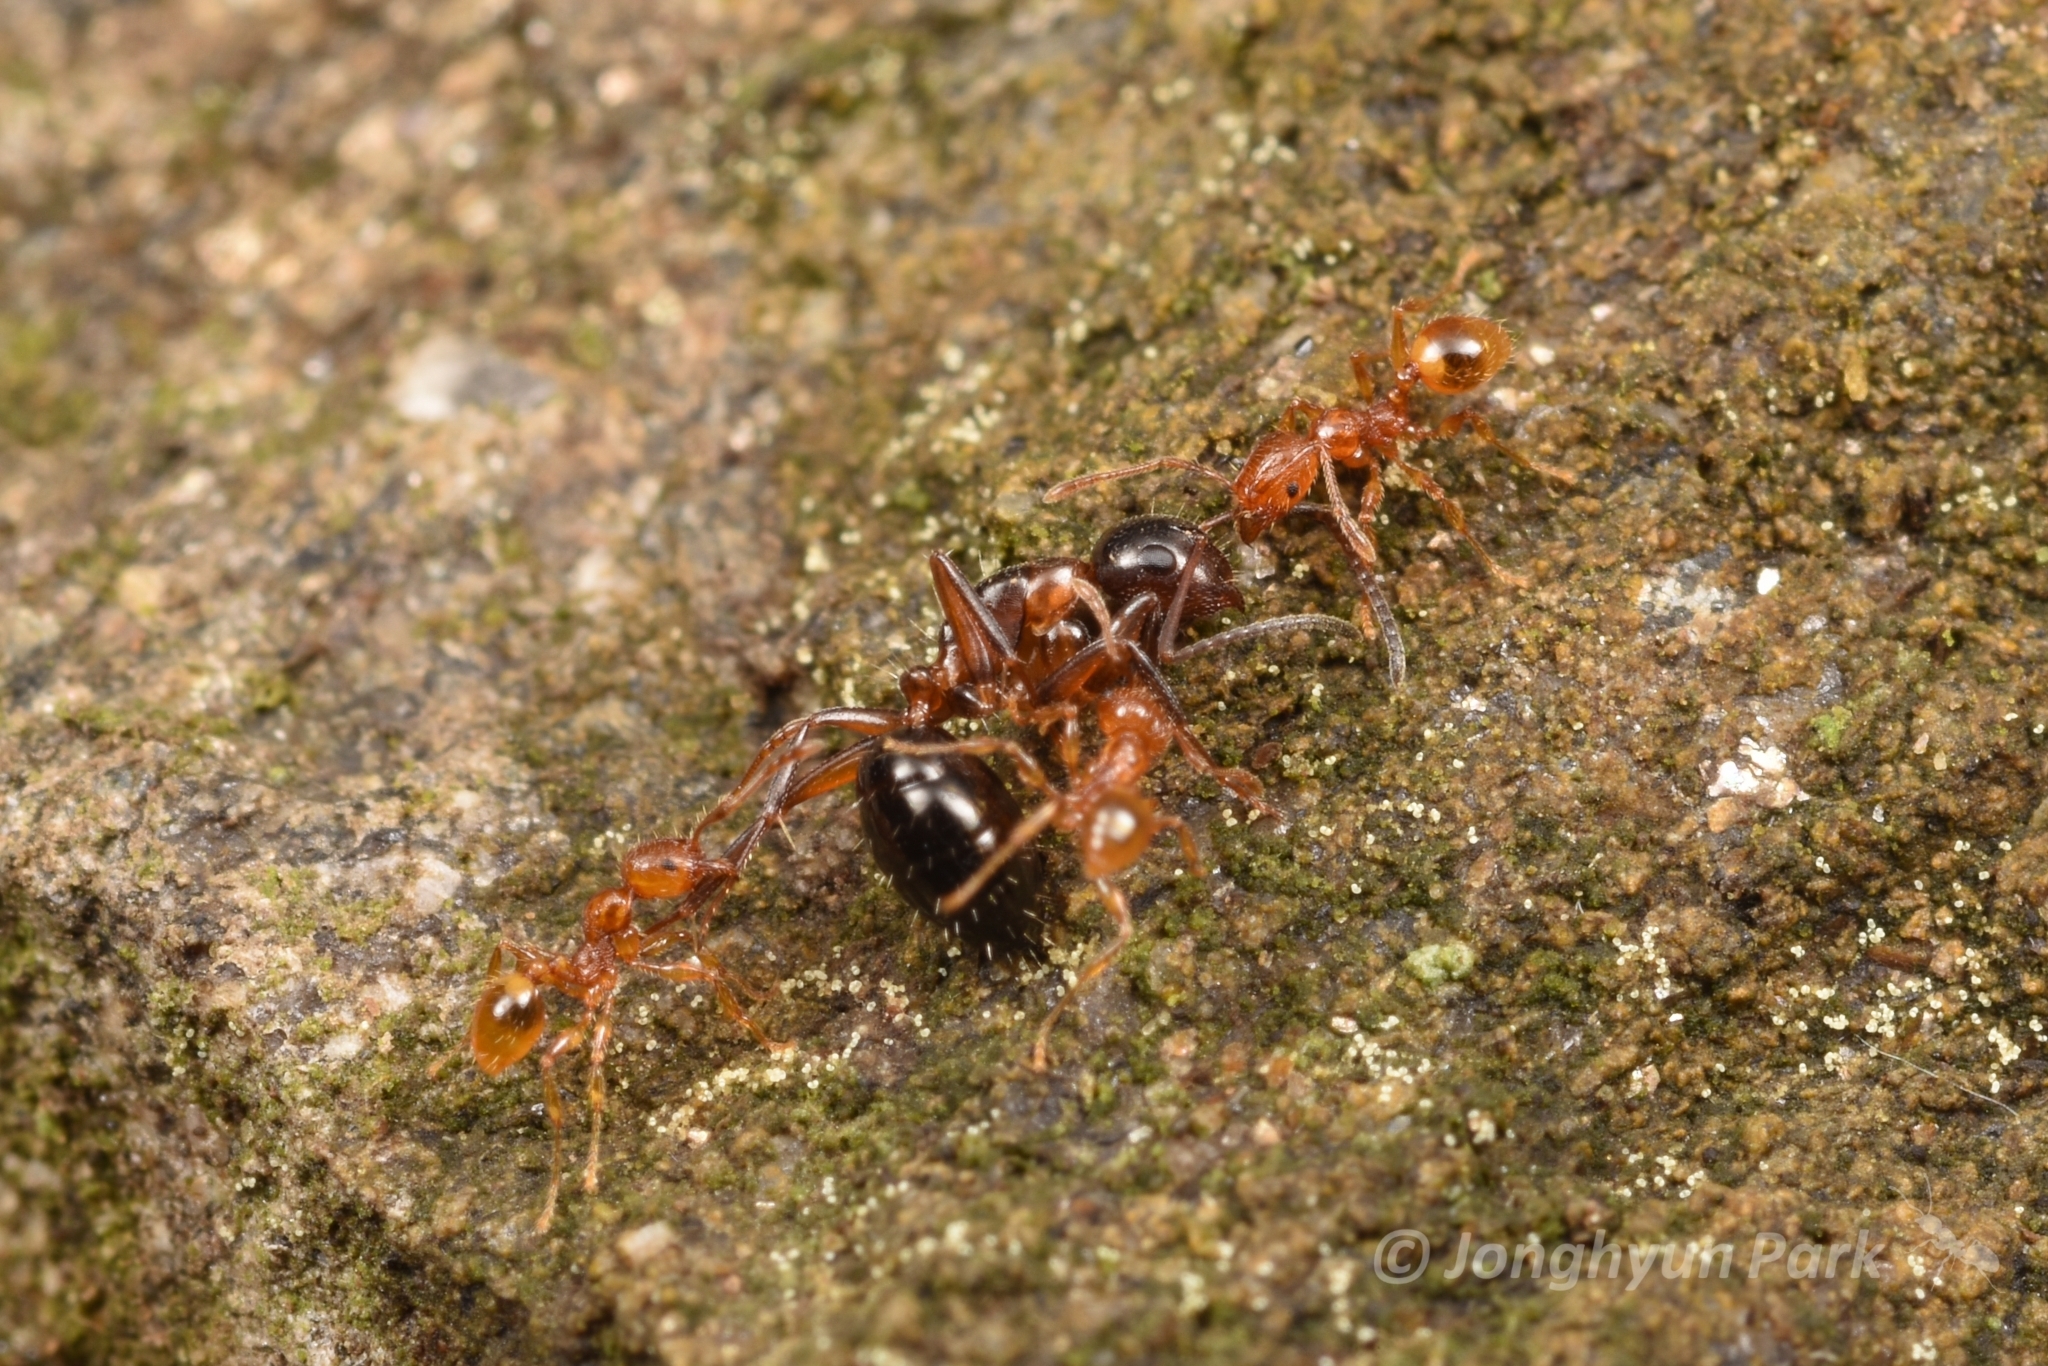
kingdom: Animalia
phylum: Arthropoda
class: Insecta
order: Hymenoptera
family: Formicidae
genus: Camponotus
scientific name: Camponotus vitiosus
